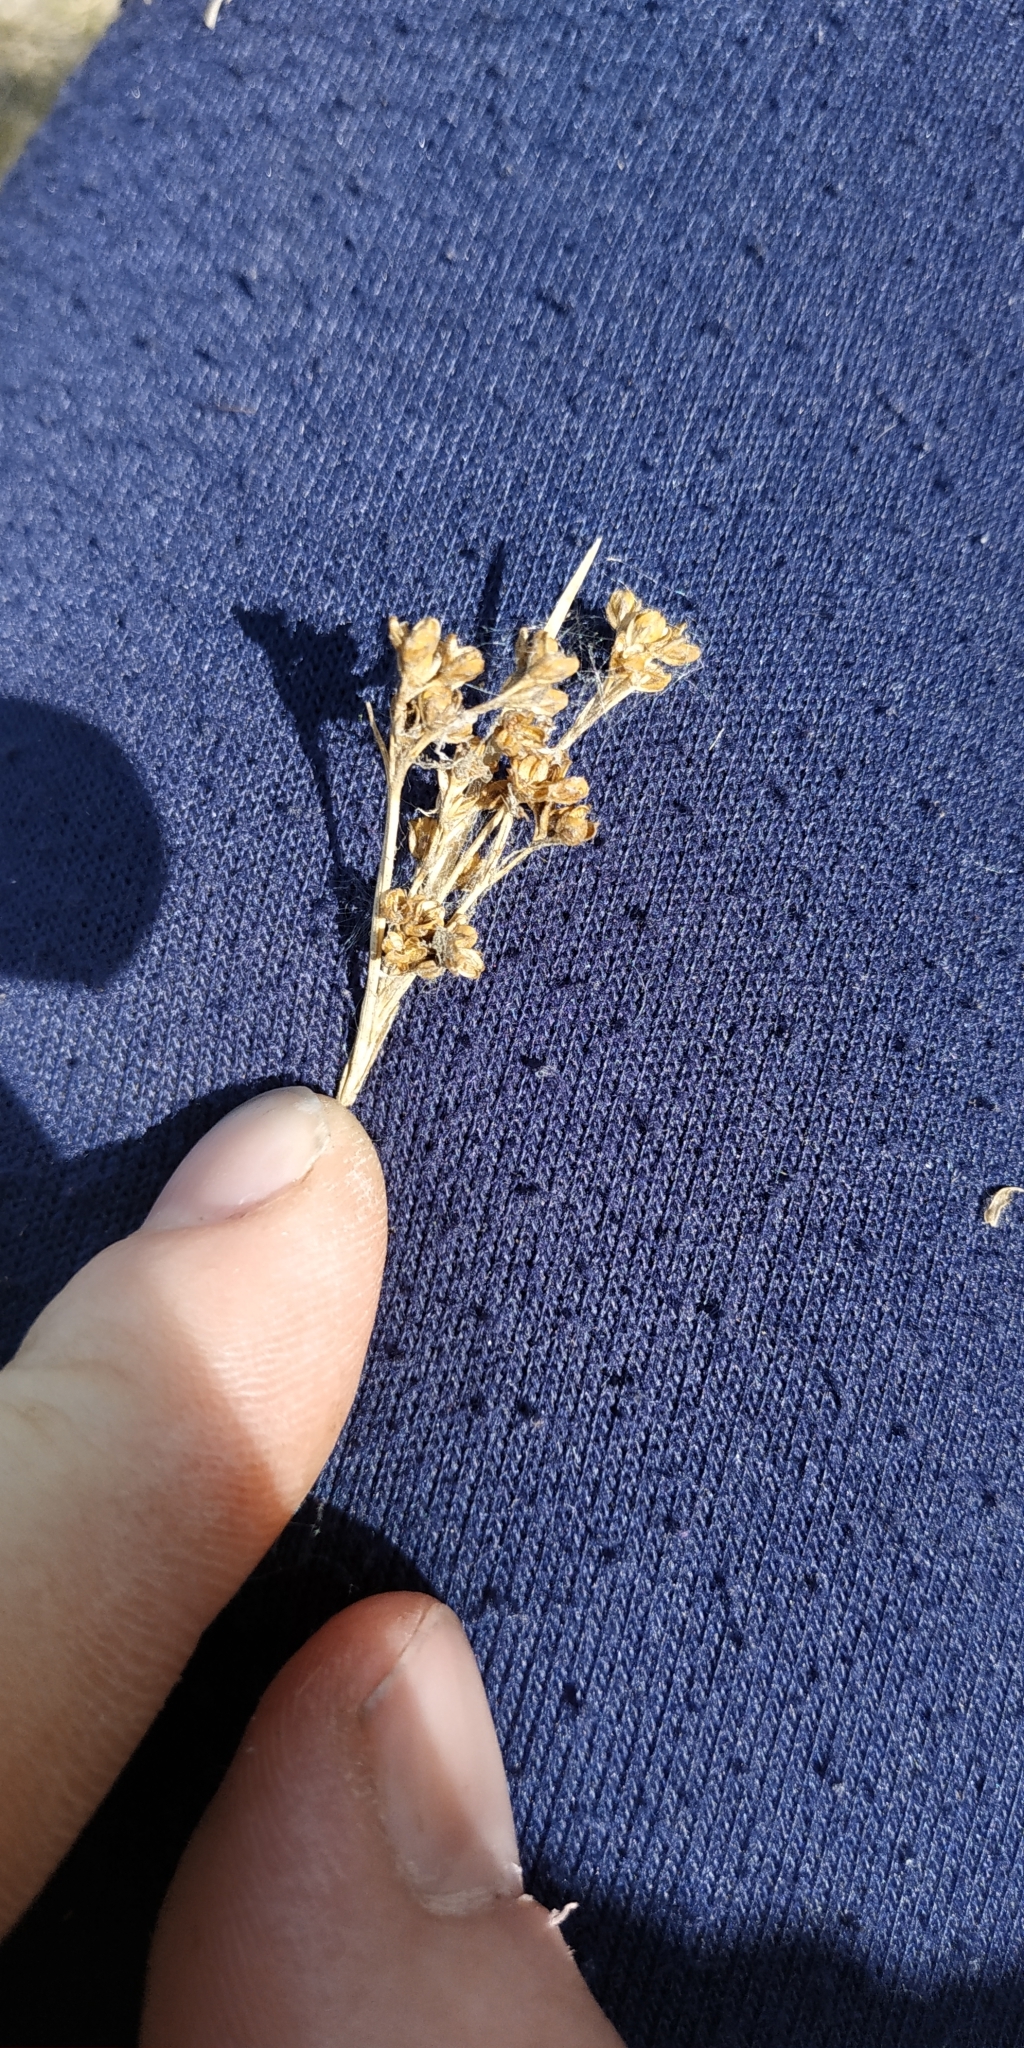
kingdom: Plantae
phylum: Tracheophyta
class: Liliopsida
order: Poales
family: Juncaceae
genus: Juncus
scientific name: Juncus compressus
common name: Round-fruited rush
